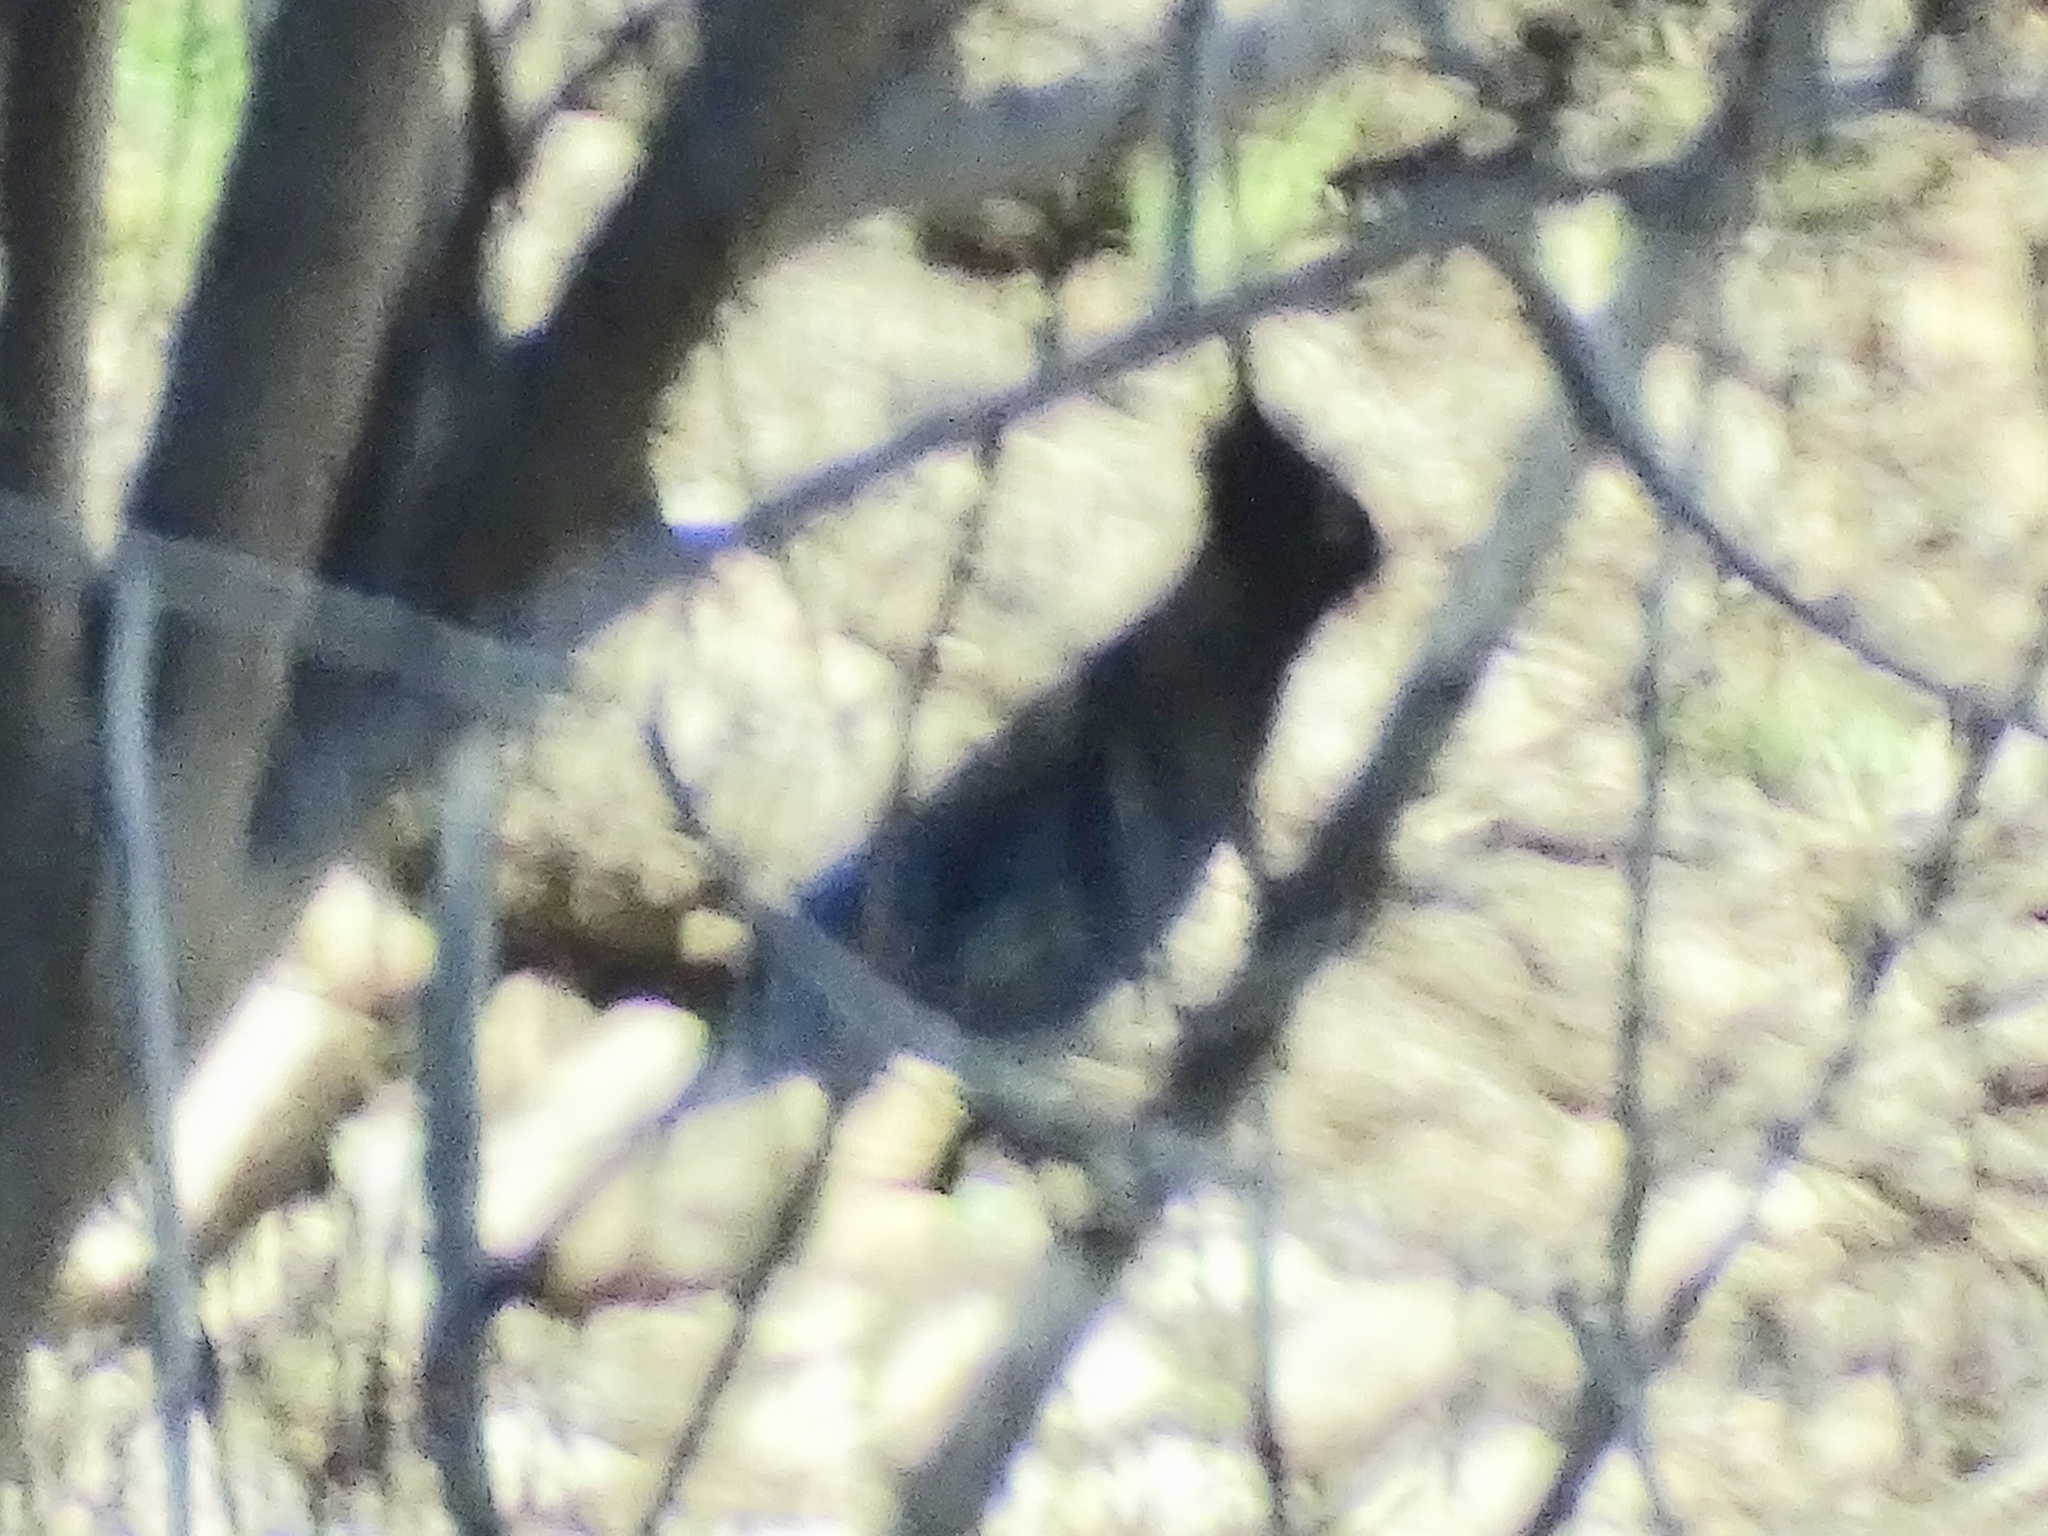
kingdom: Animalia
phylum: Chordata
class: Aves
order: Passeriformes
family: Corvidae
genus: Cyanocitta
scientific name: Cyanocitta stelleri
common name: Steller's jay
